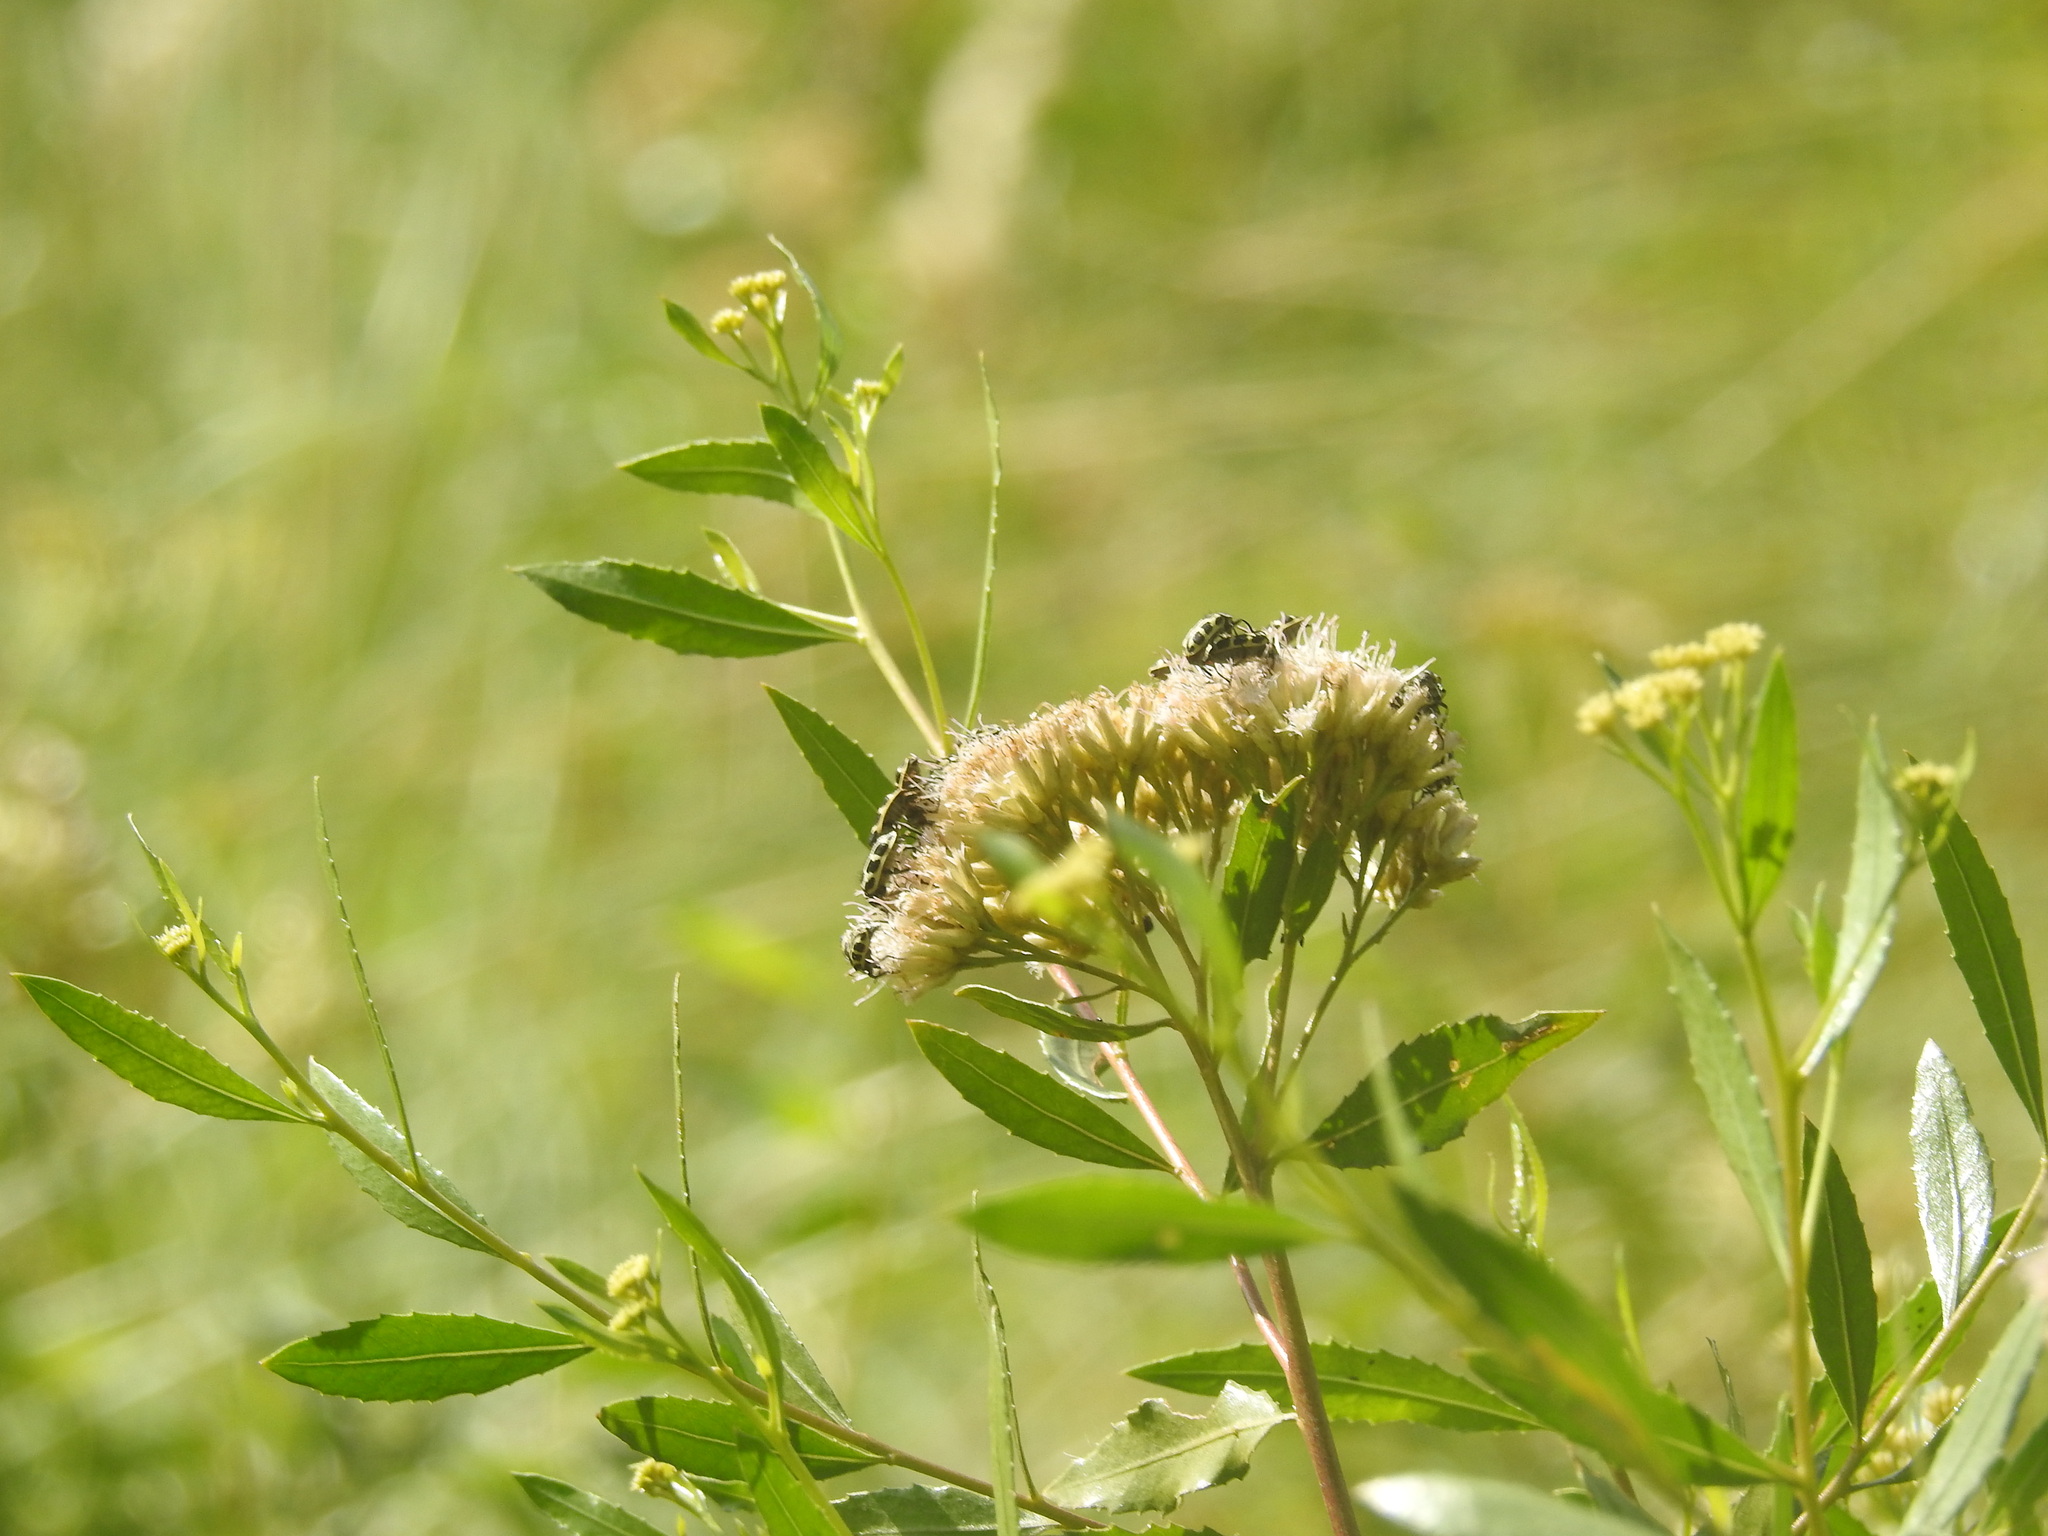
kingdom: Animalia
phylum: Arthropoda
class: Insecta
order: Coleoptera
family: Melyridae
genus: Astylus
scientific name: Astylus atromaculatus
